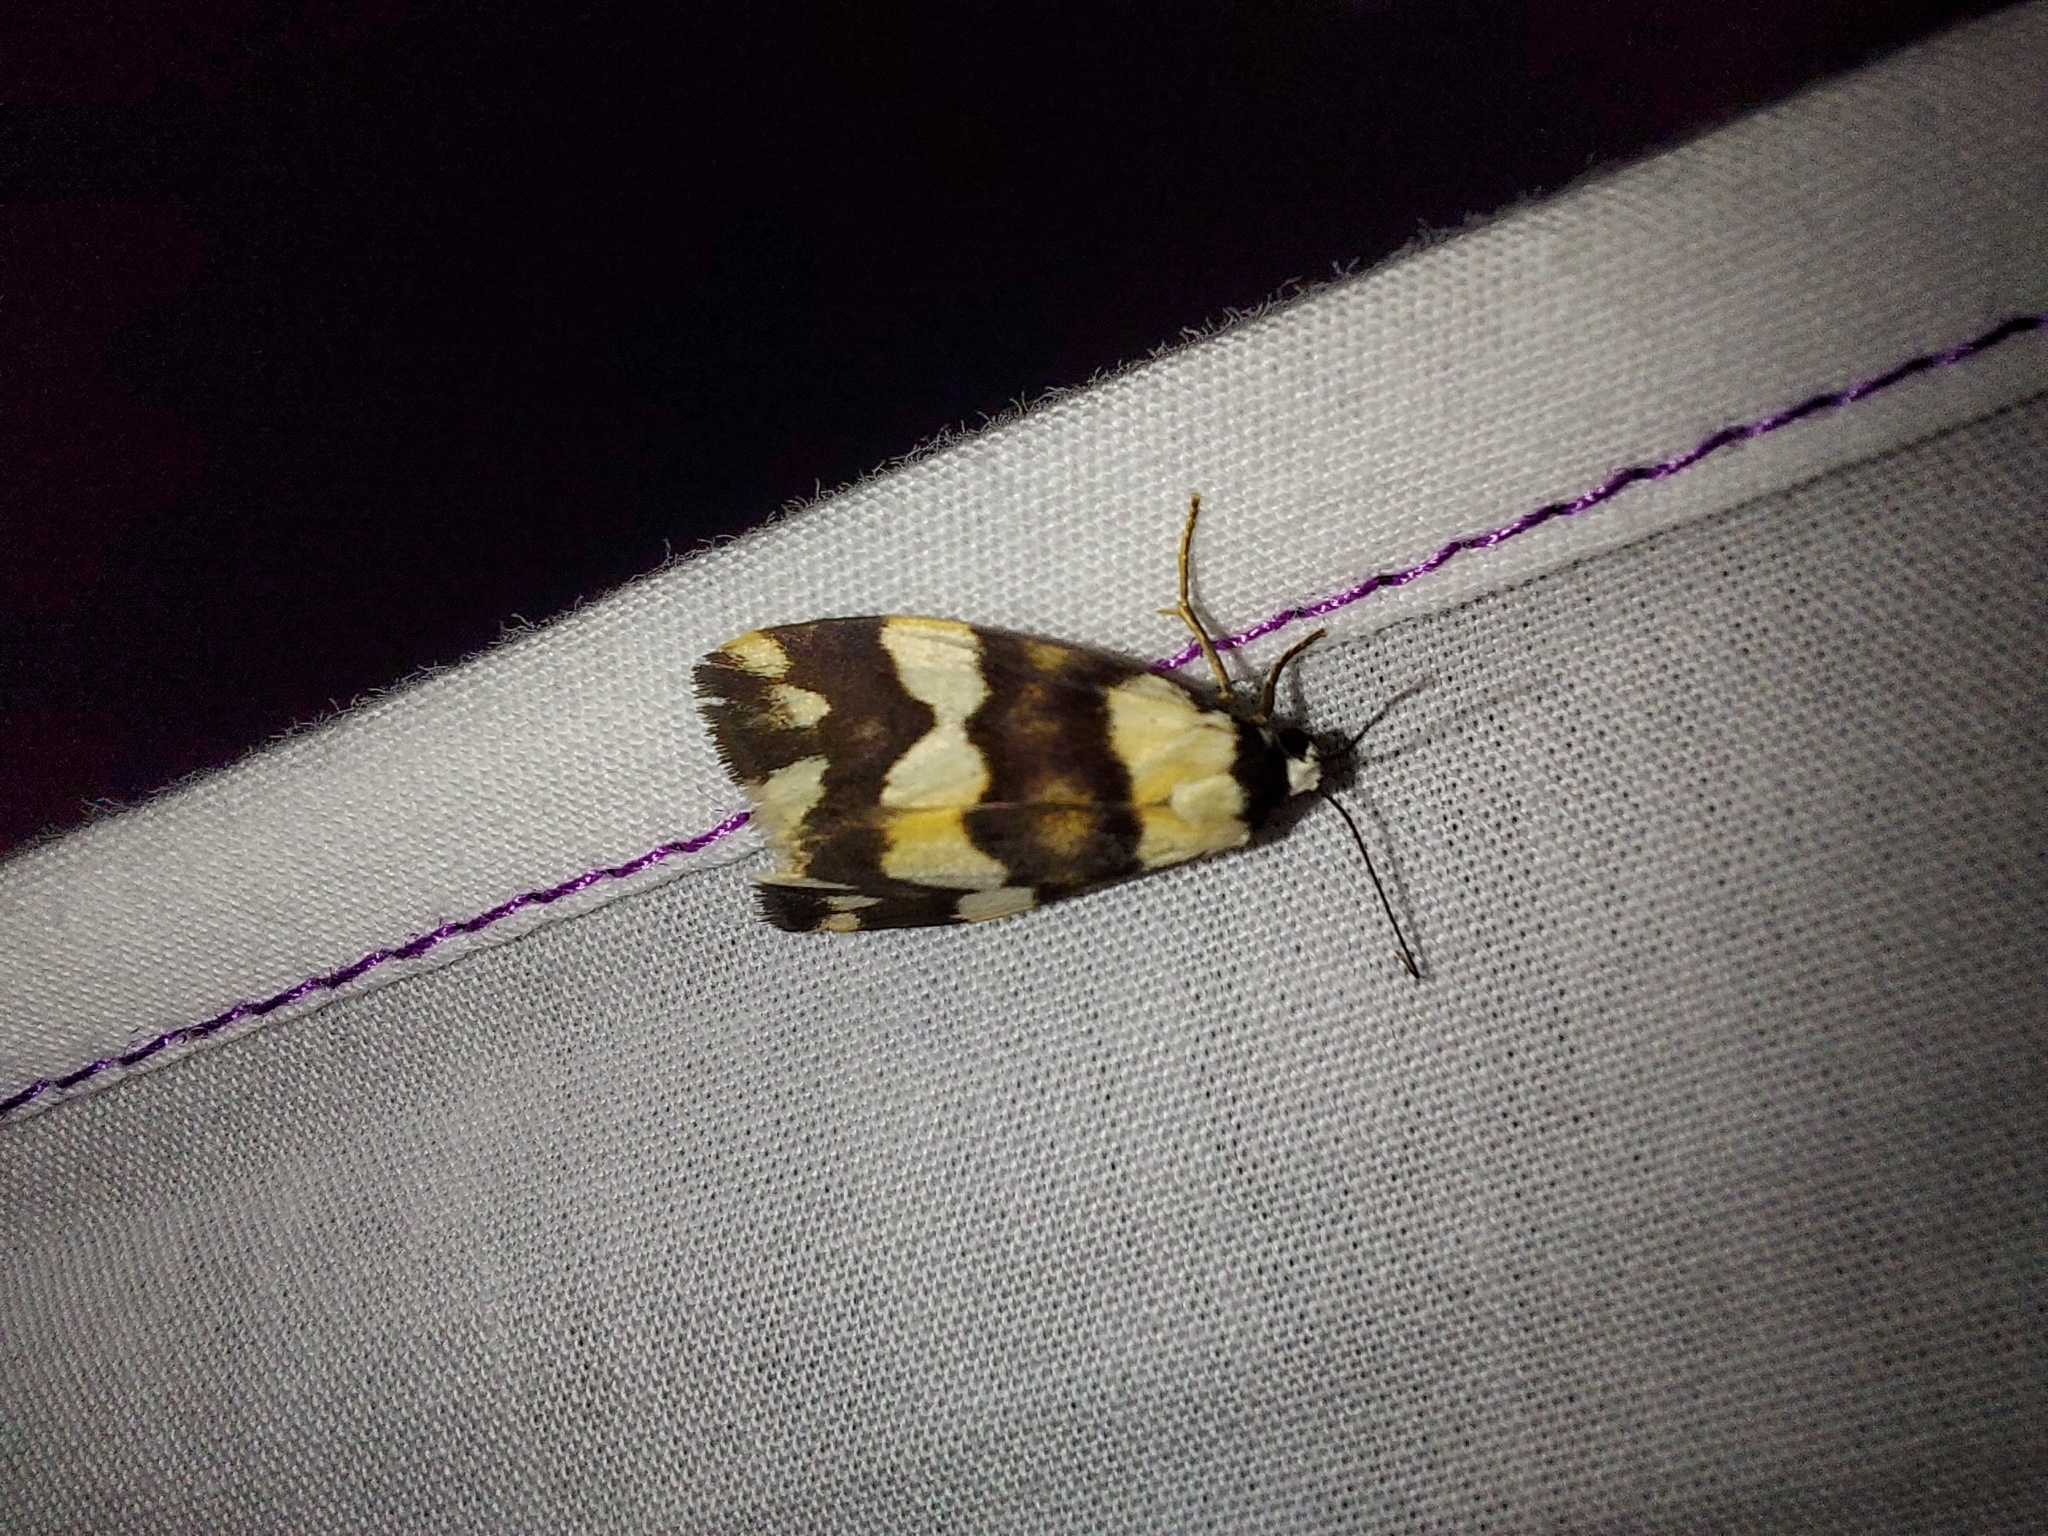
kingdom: Animalia
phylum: Arthropoda
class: Insecta
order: Lepidoptera
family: Erebidae
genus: Termessa
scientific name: Termessa gratiosa
